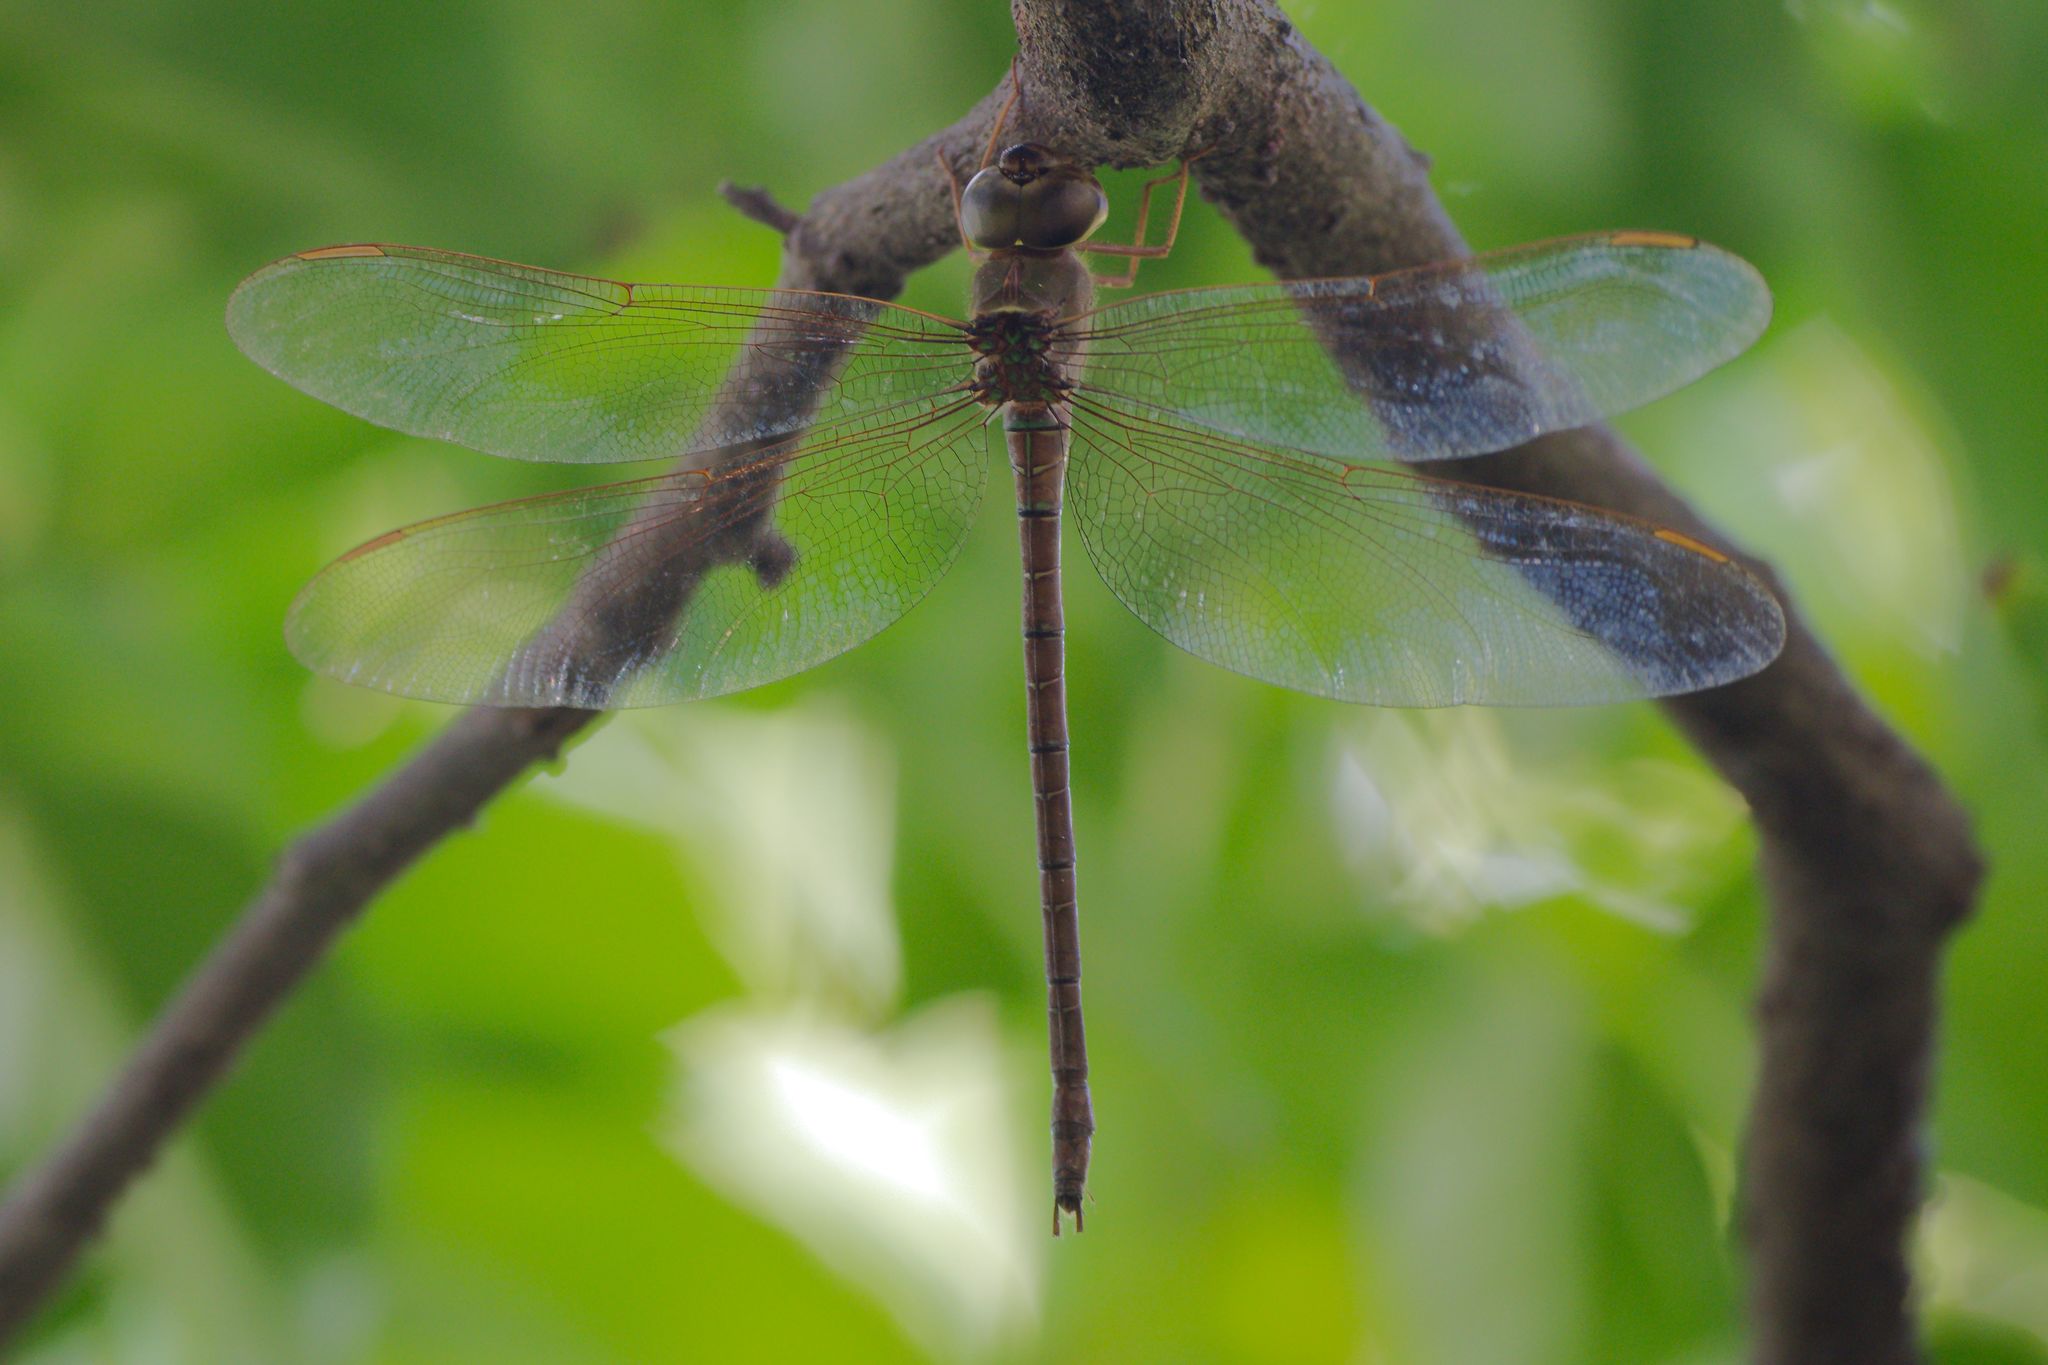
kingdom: Animalia
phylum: Arthropoda
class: Insecta
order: Odonata
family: Aeshnidae
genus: Gynacantha
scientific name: Gynacantha nervosa
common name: Twilight darner
